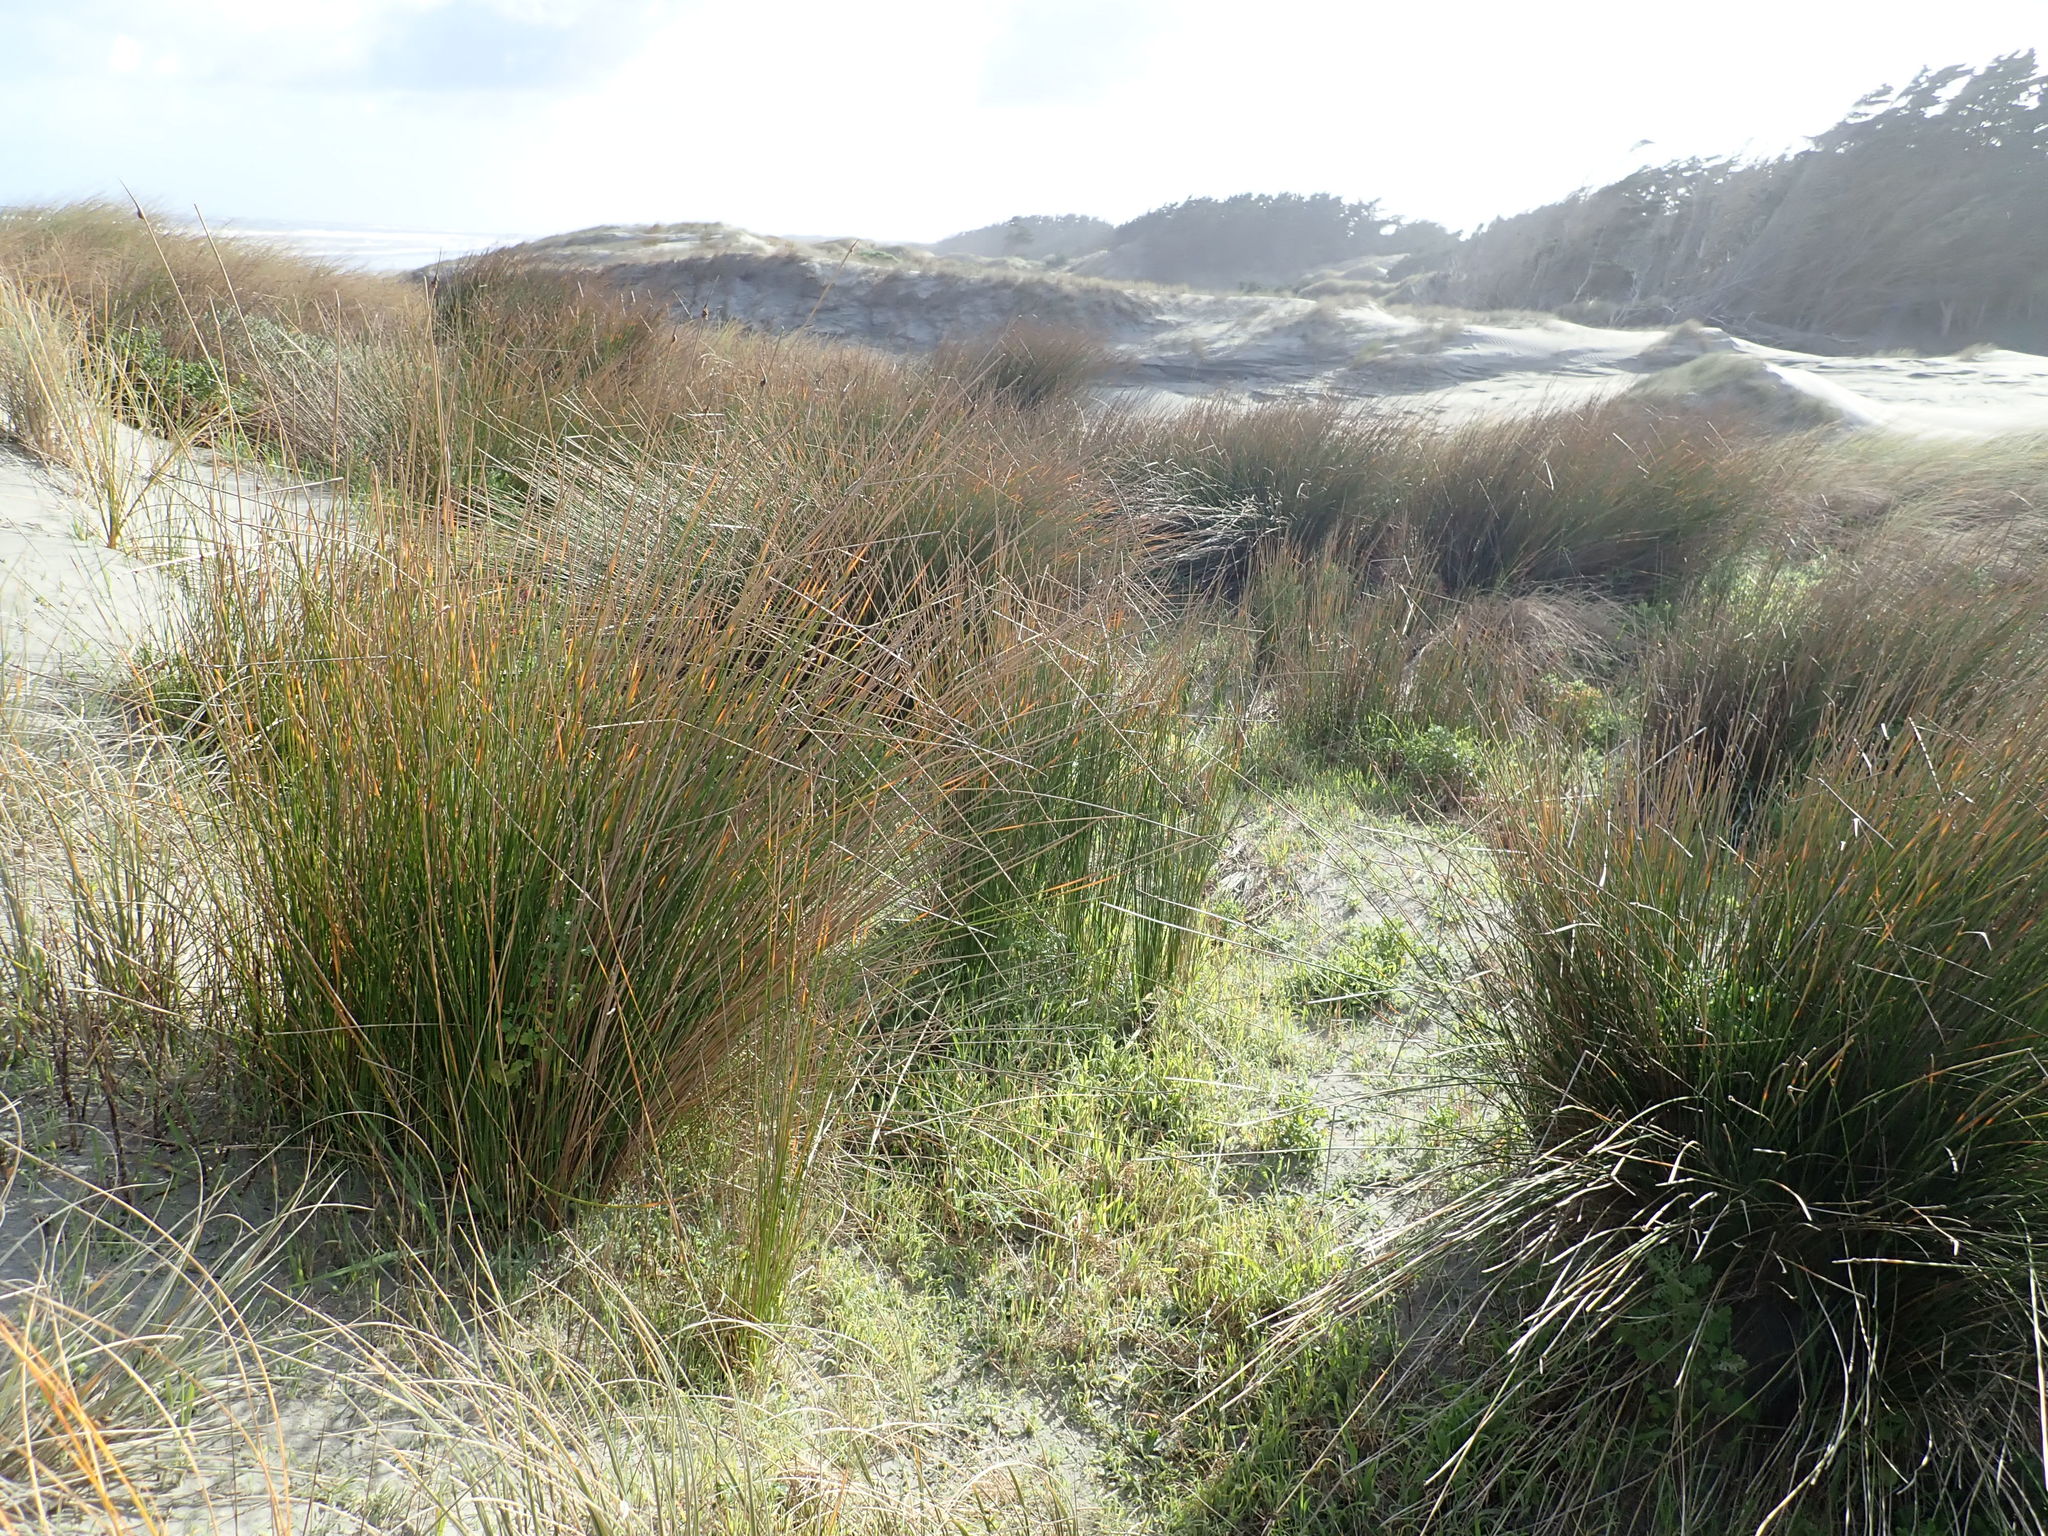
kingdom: Plantae
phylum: Tracheophyta
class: Liliopsida
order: Poales
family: Cyperaceae
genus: Ficinia
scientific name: Ficinia nodosa
